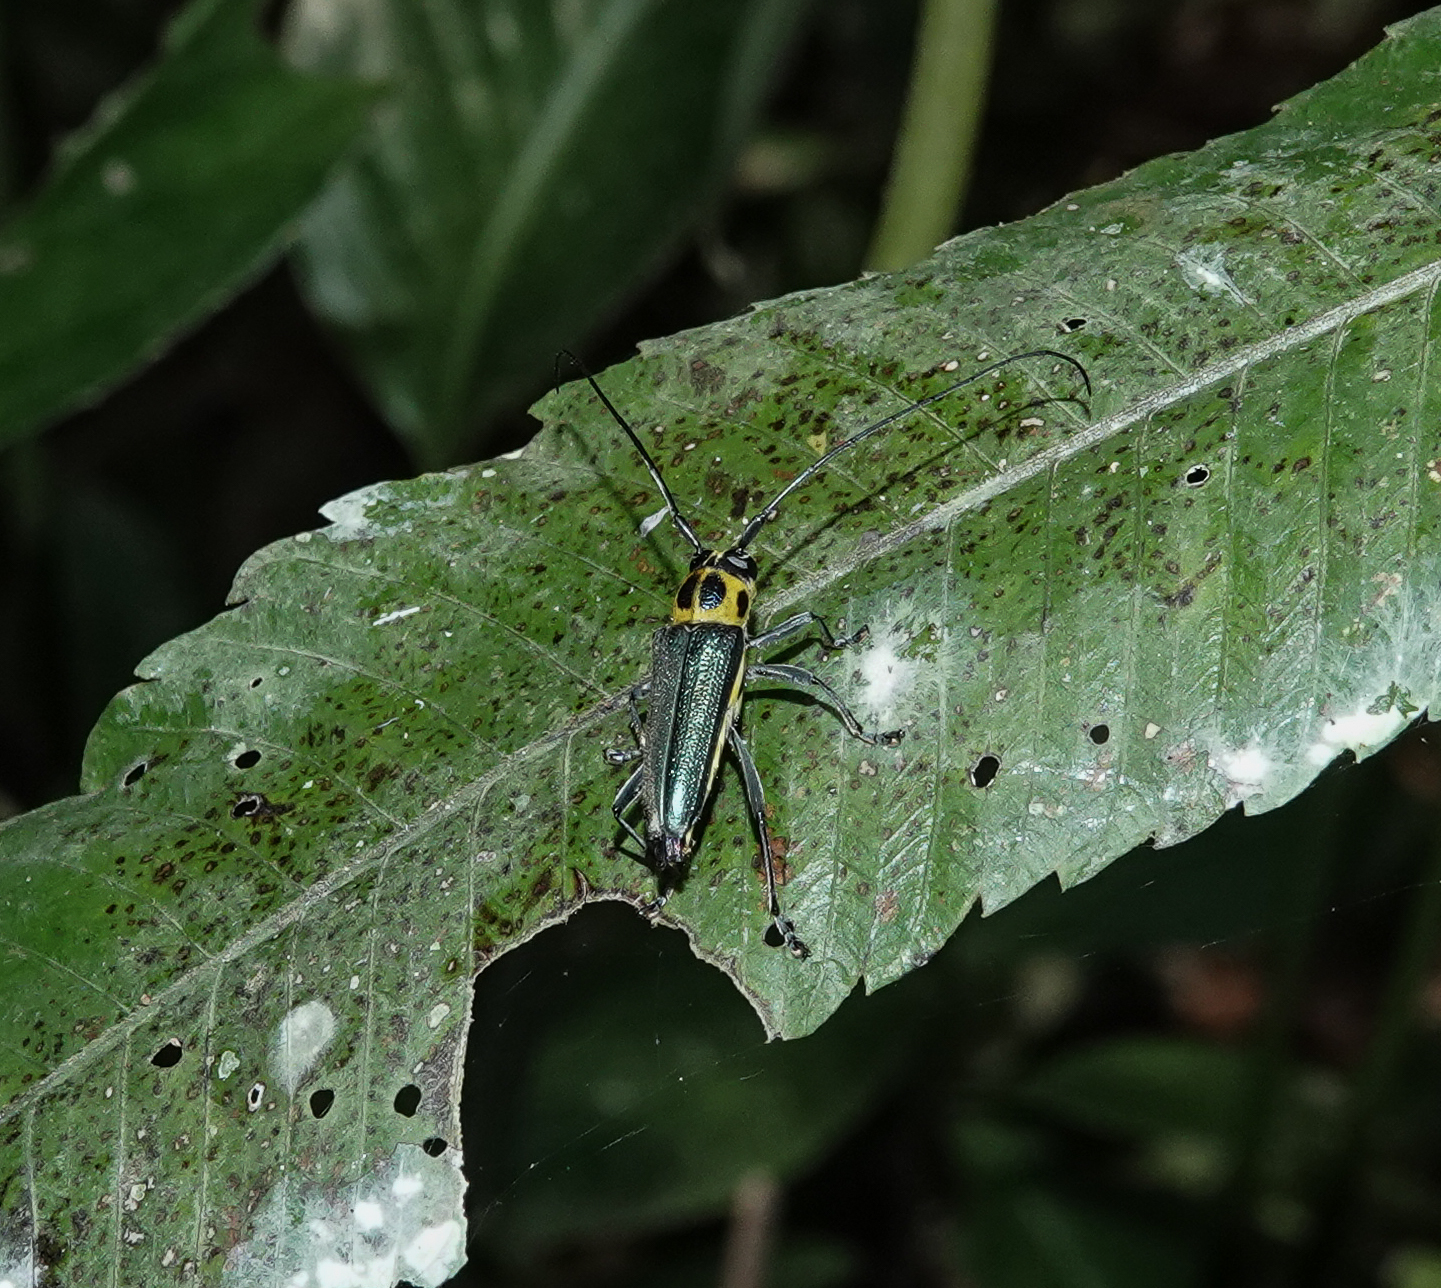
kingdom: Animalia
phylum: Arthropoda
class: Insecta
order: Coleoptera
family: Cerambycidae
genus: Glenea
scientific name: Glenea chalybeata
